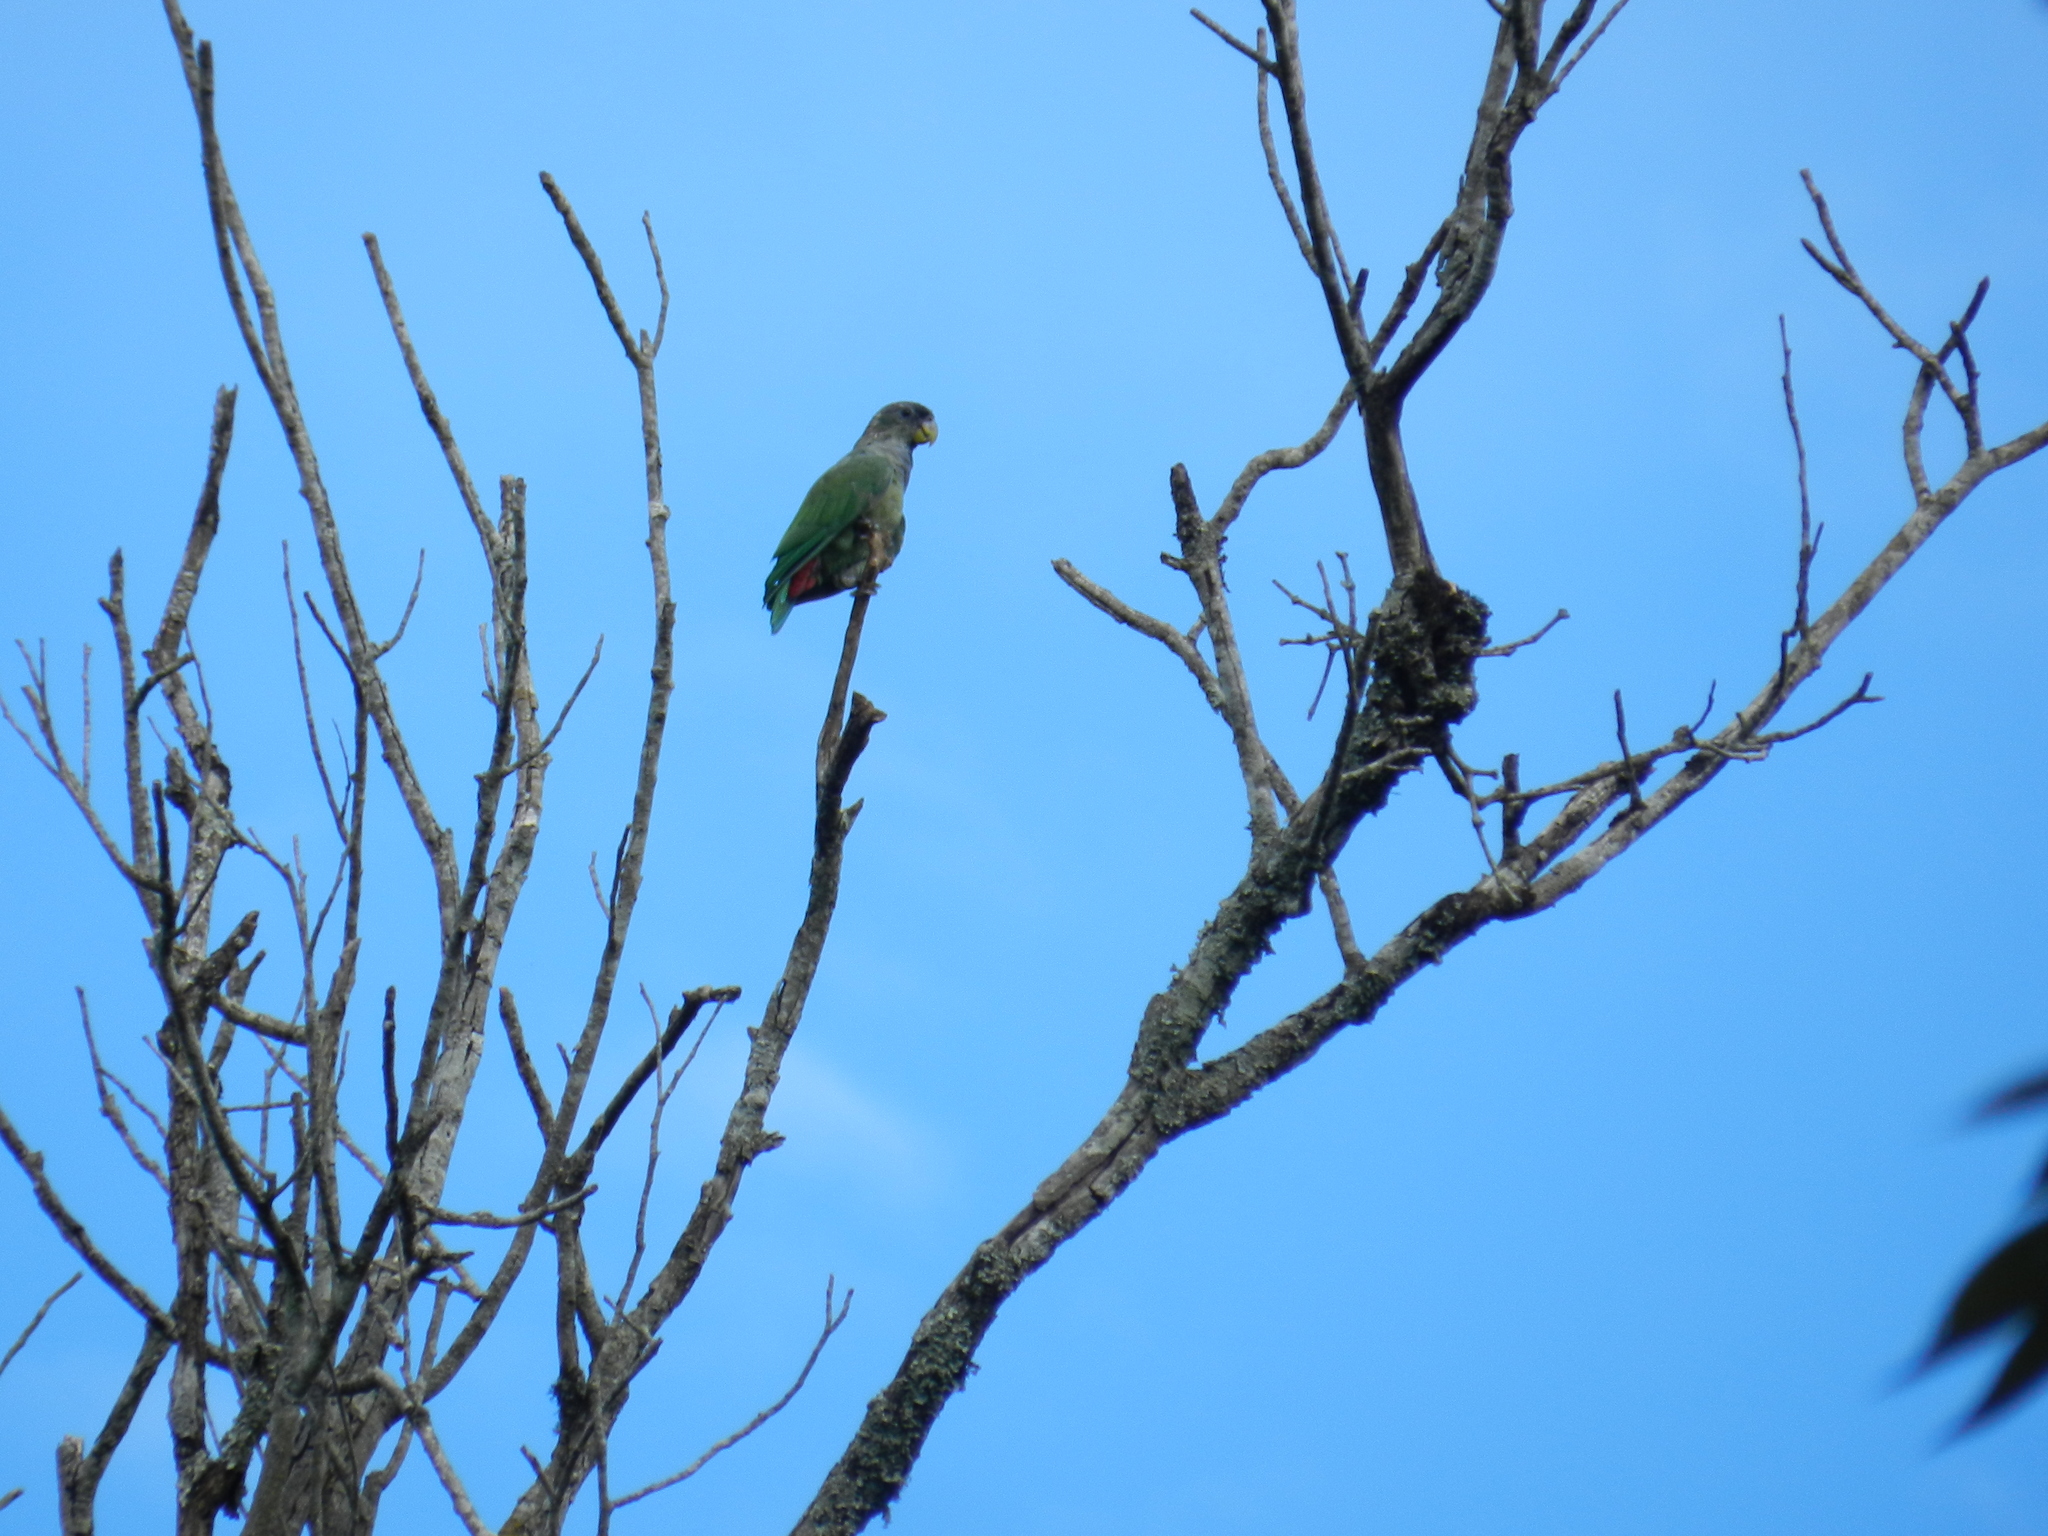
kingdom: Animalia
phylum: Chordata
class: Aves
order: Psittaciformes
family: Psittacidae
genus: Pionus
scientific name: Pionus maximiliani
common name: Scaly-headed parrot
